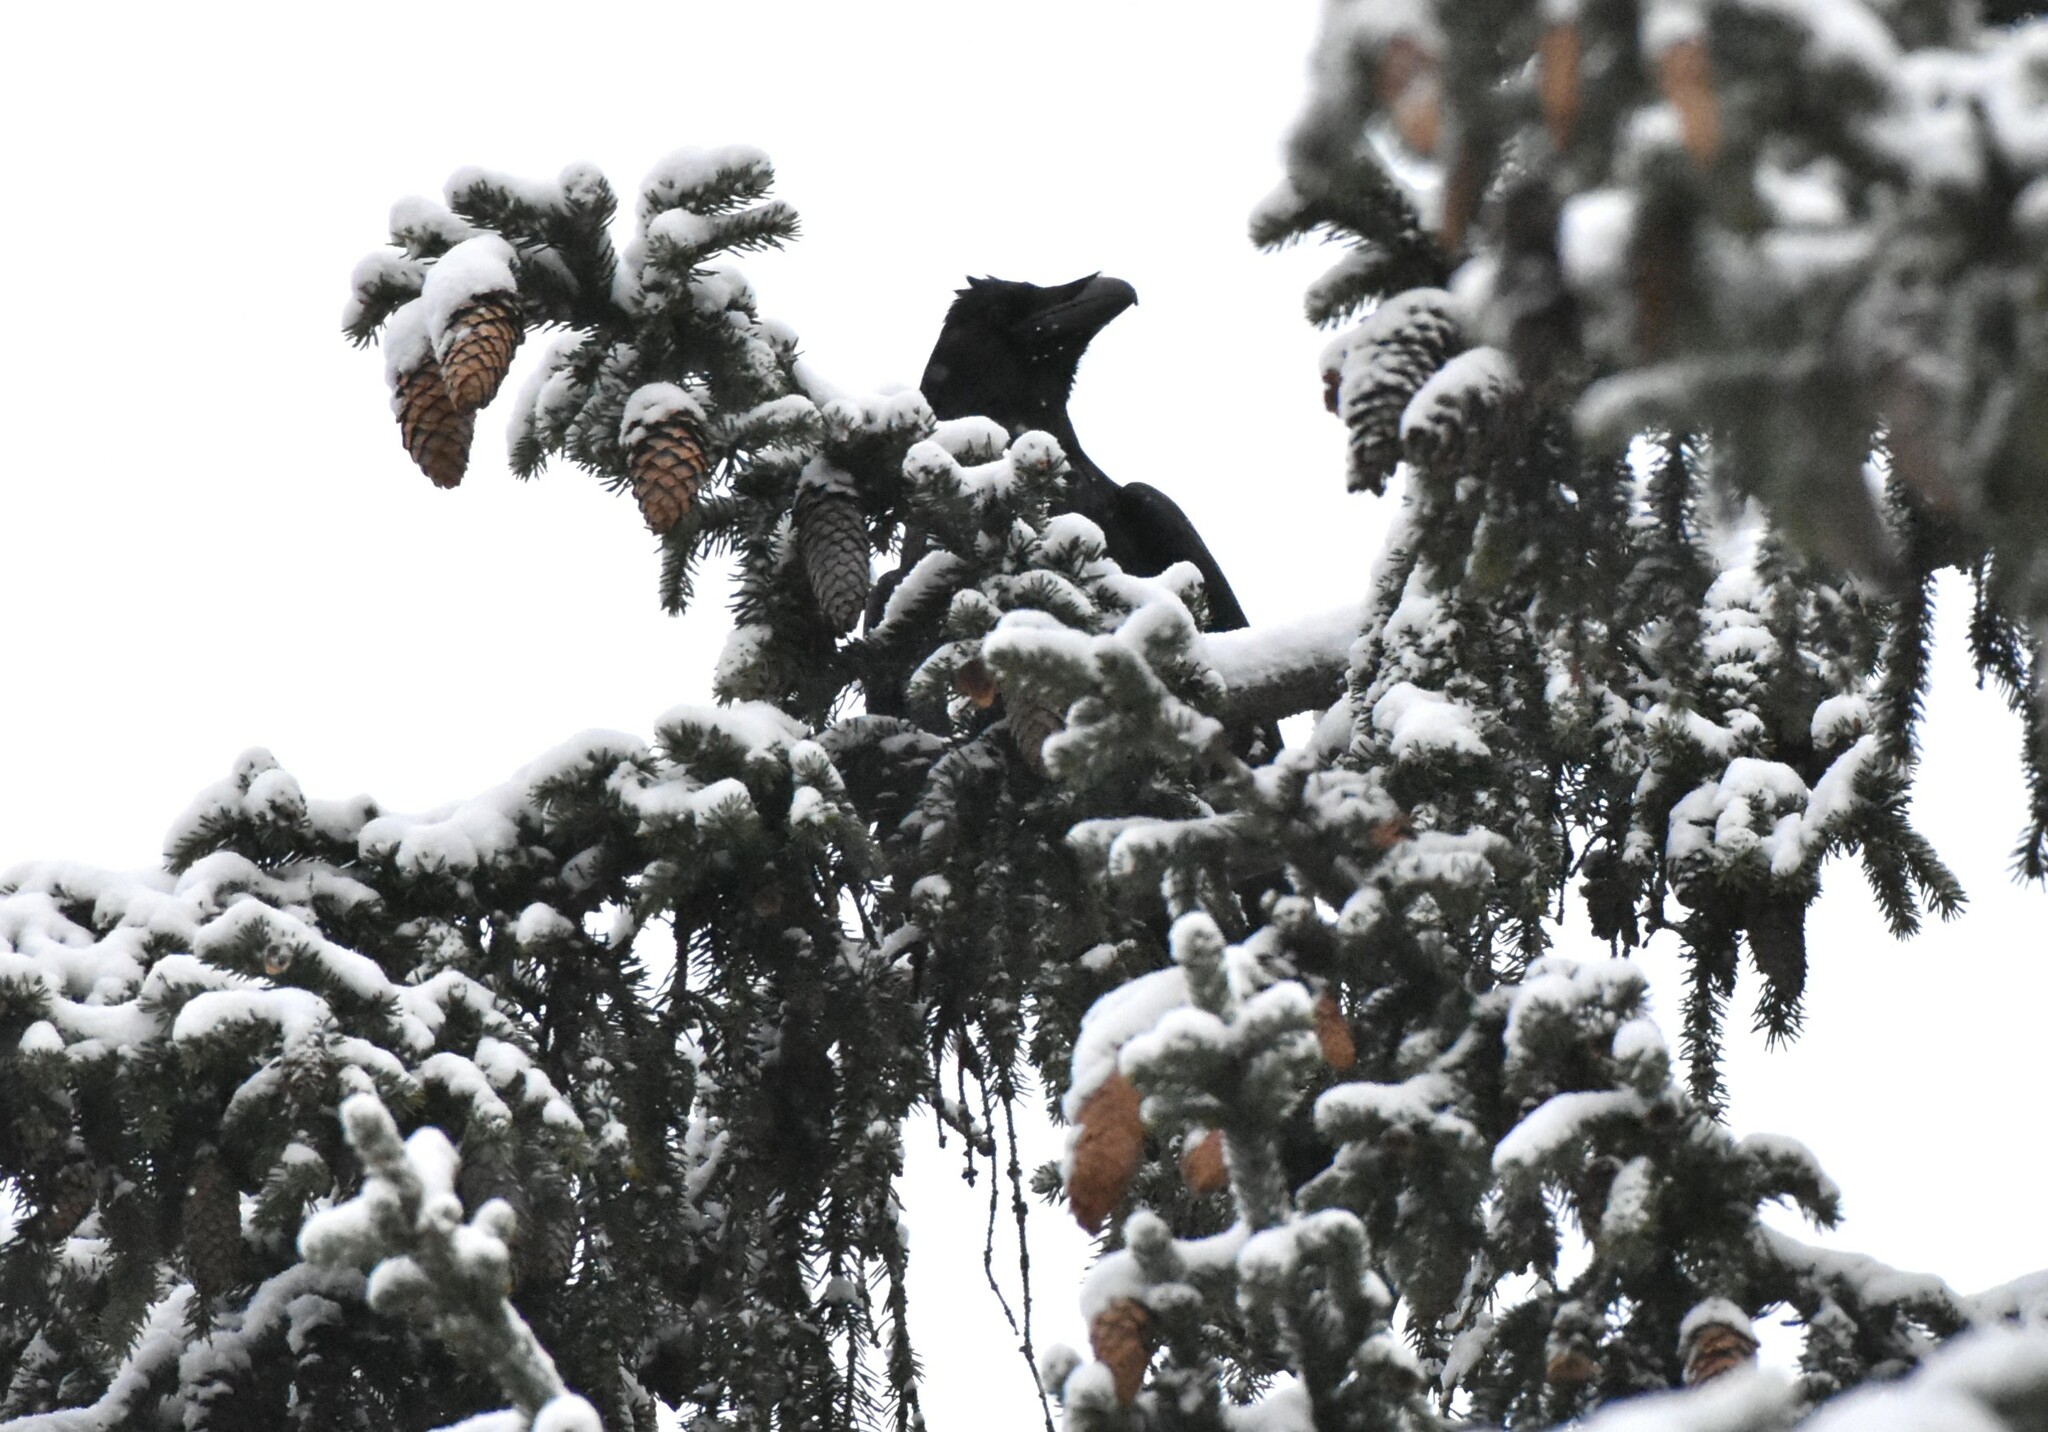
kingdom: Animalia
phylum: Chordata
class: Aves
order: Passeriformes
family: Corvidae
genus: Corvus
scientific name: Corvus corax
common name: Common raven
